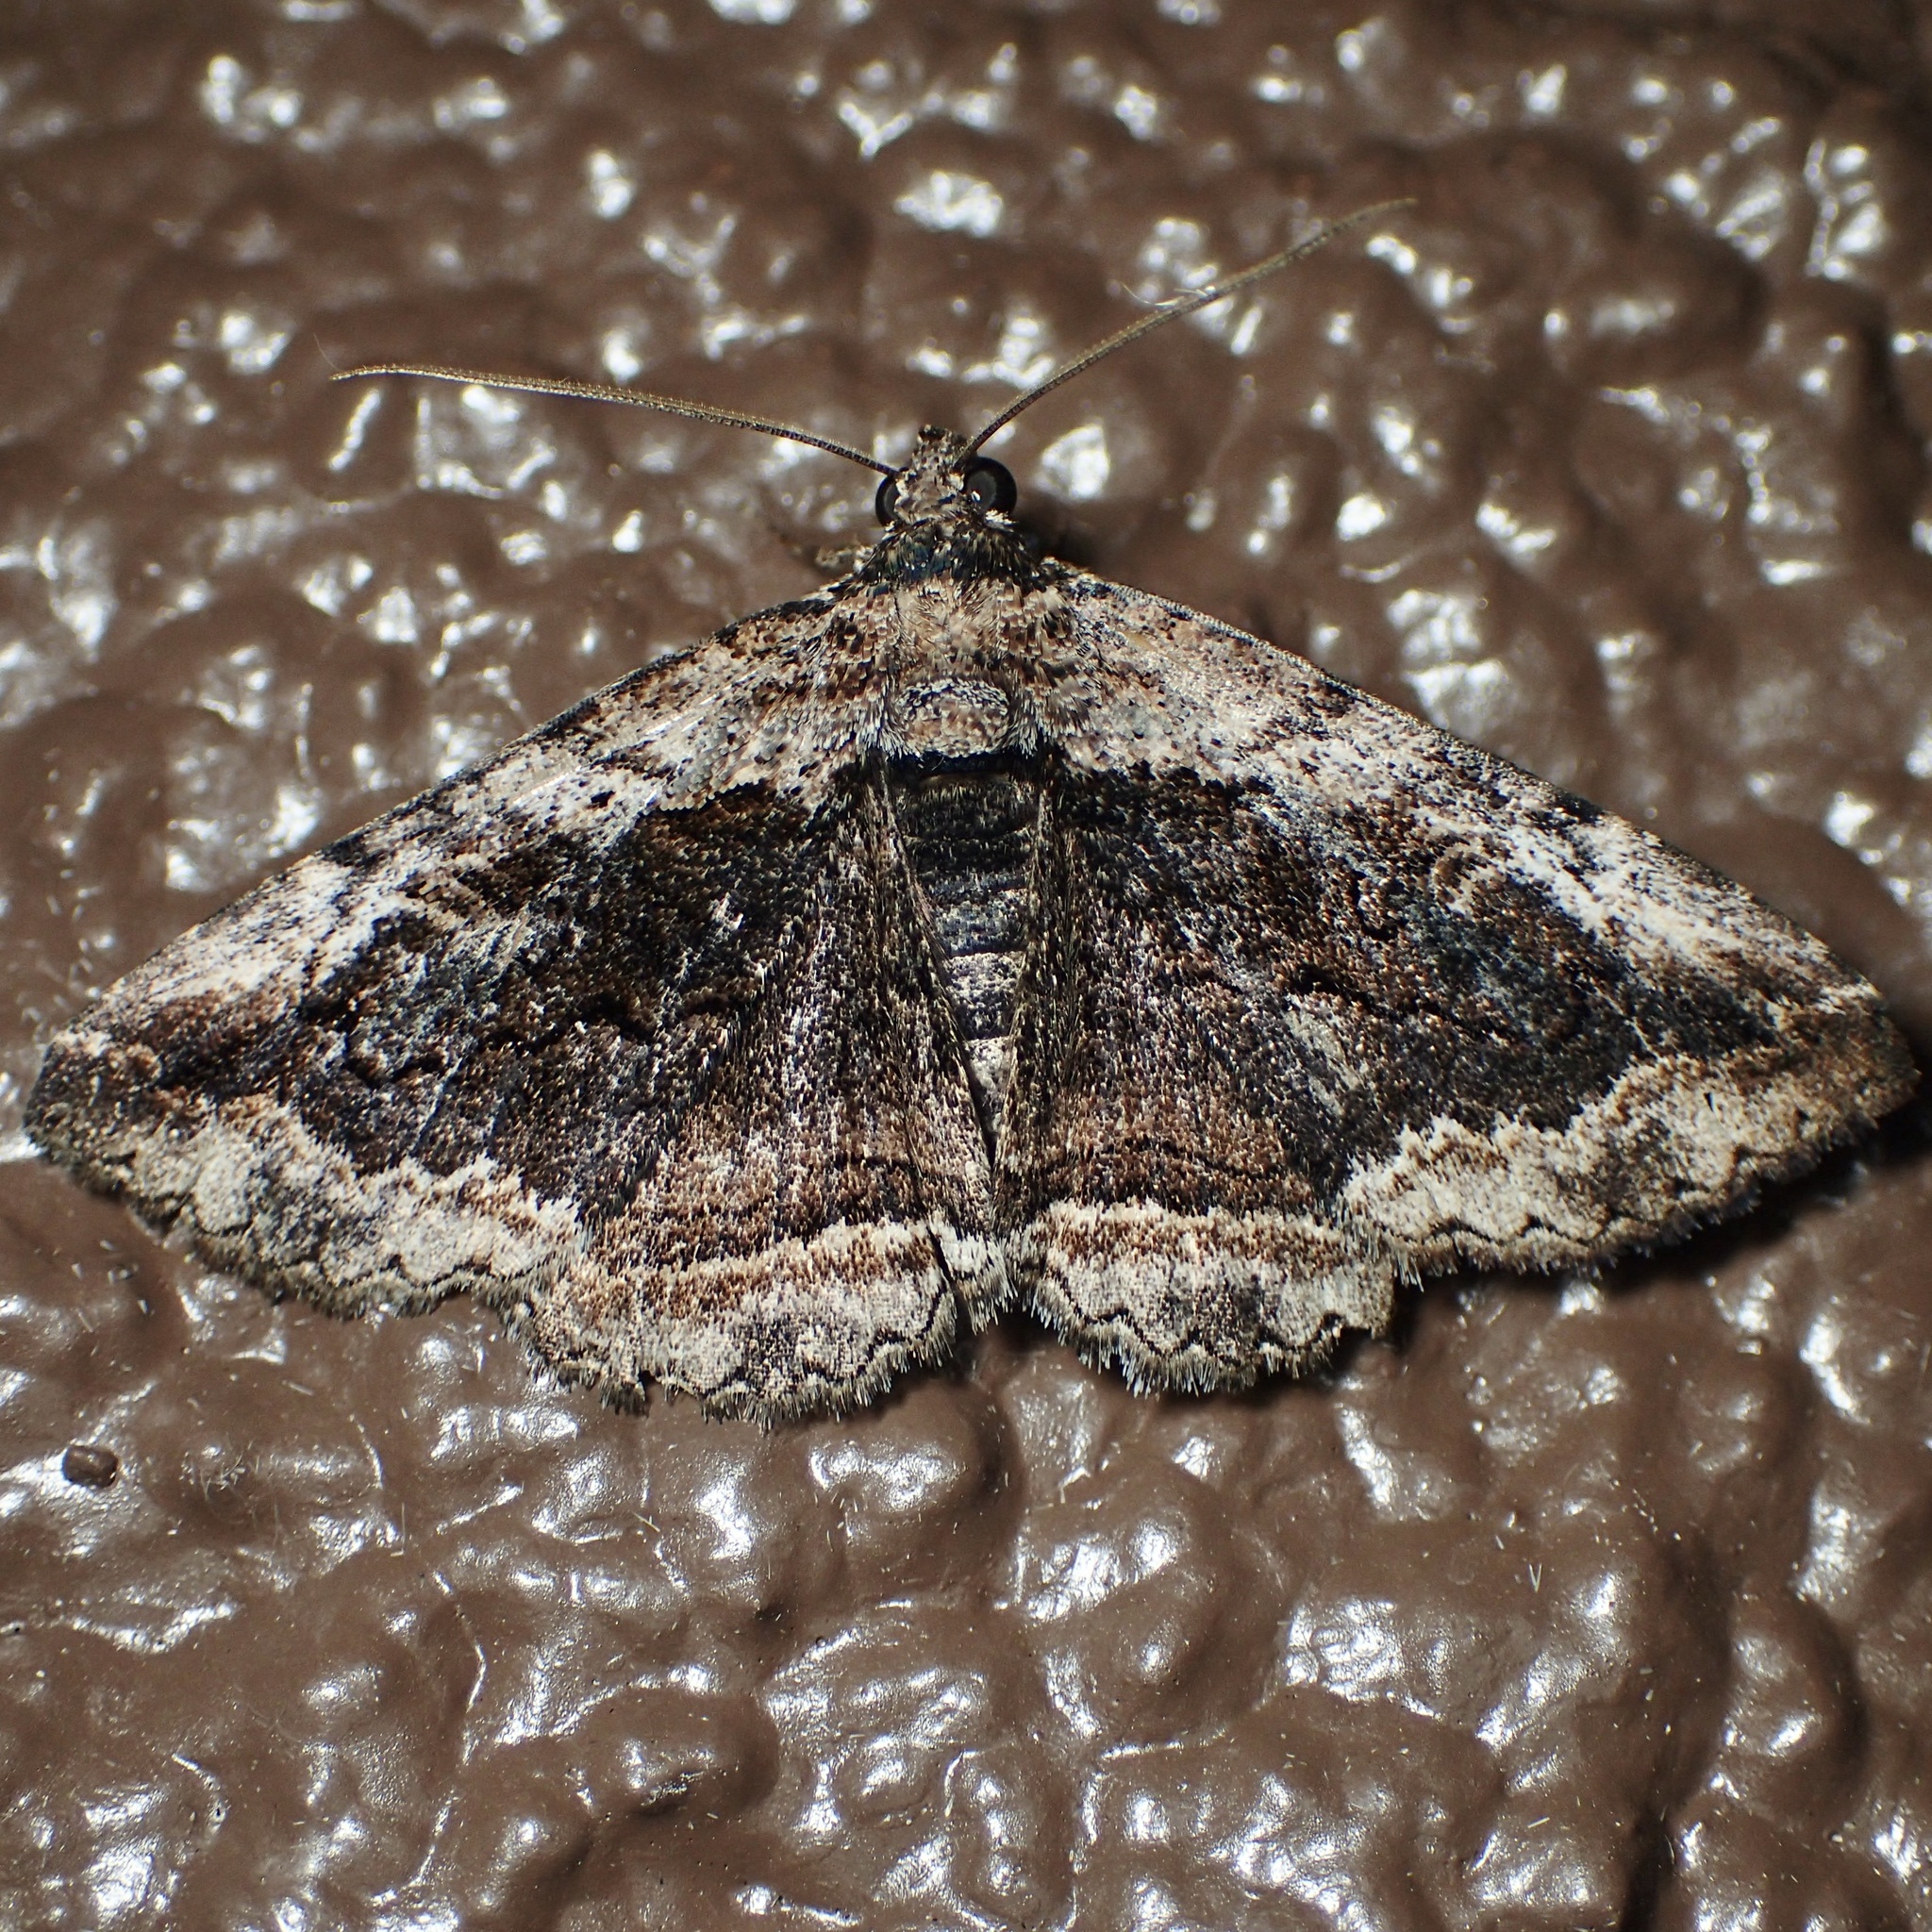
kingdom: Animalia
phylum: Arthropoda
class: Insecta
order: Lepidoptera
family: Erebidae
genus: Zaleops
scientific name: Zaleops umbrina
